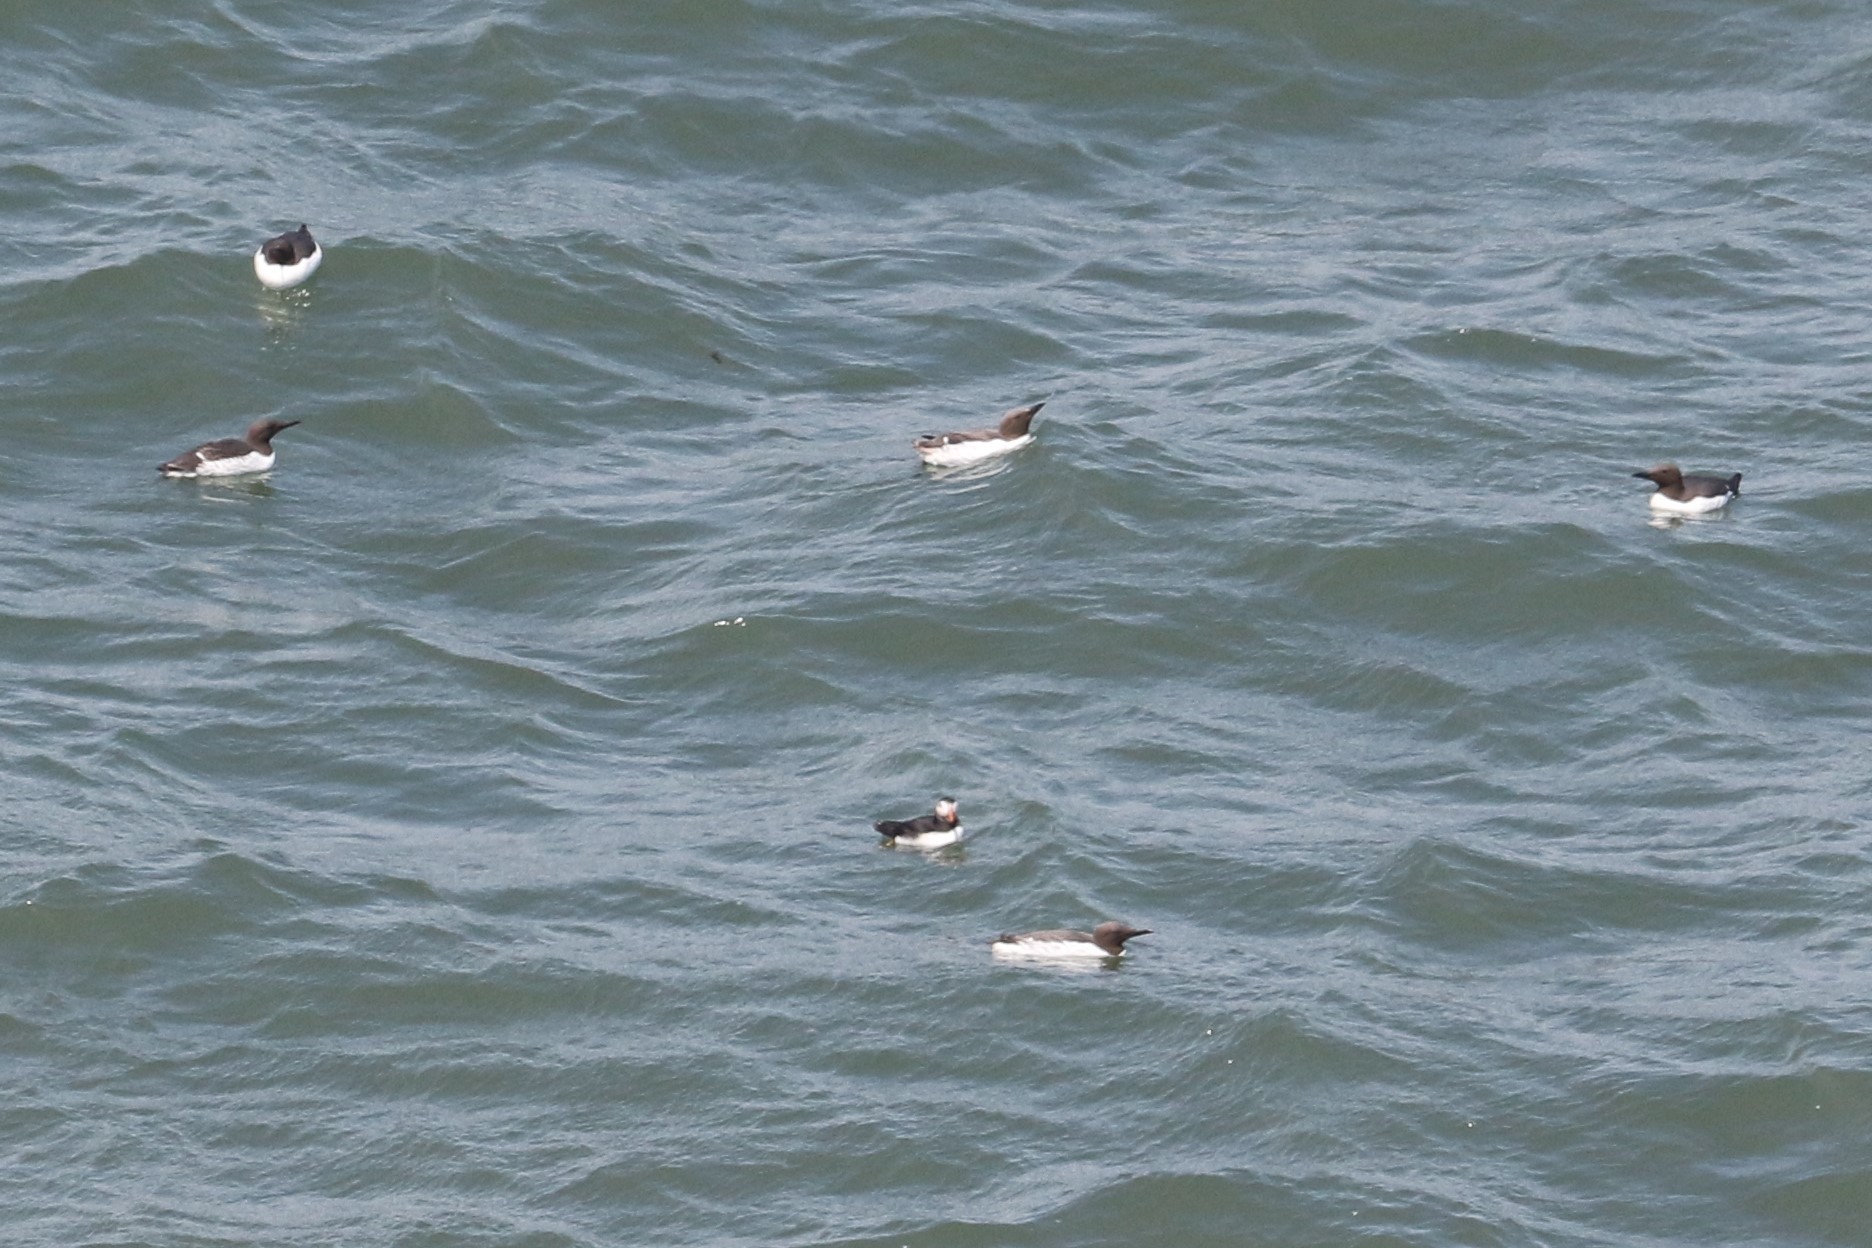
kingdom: Animalia
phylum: Chordata
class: Aves
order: Charadriiformes
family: Alcidae
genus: Uria
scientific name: Uria aalge
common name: Common murre
